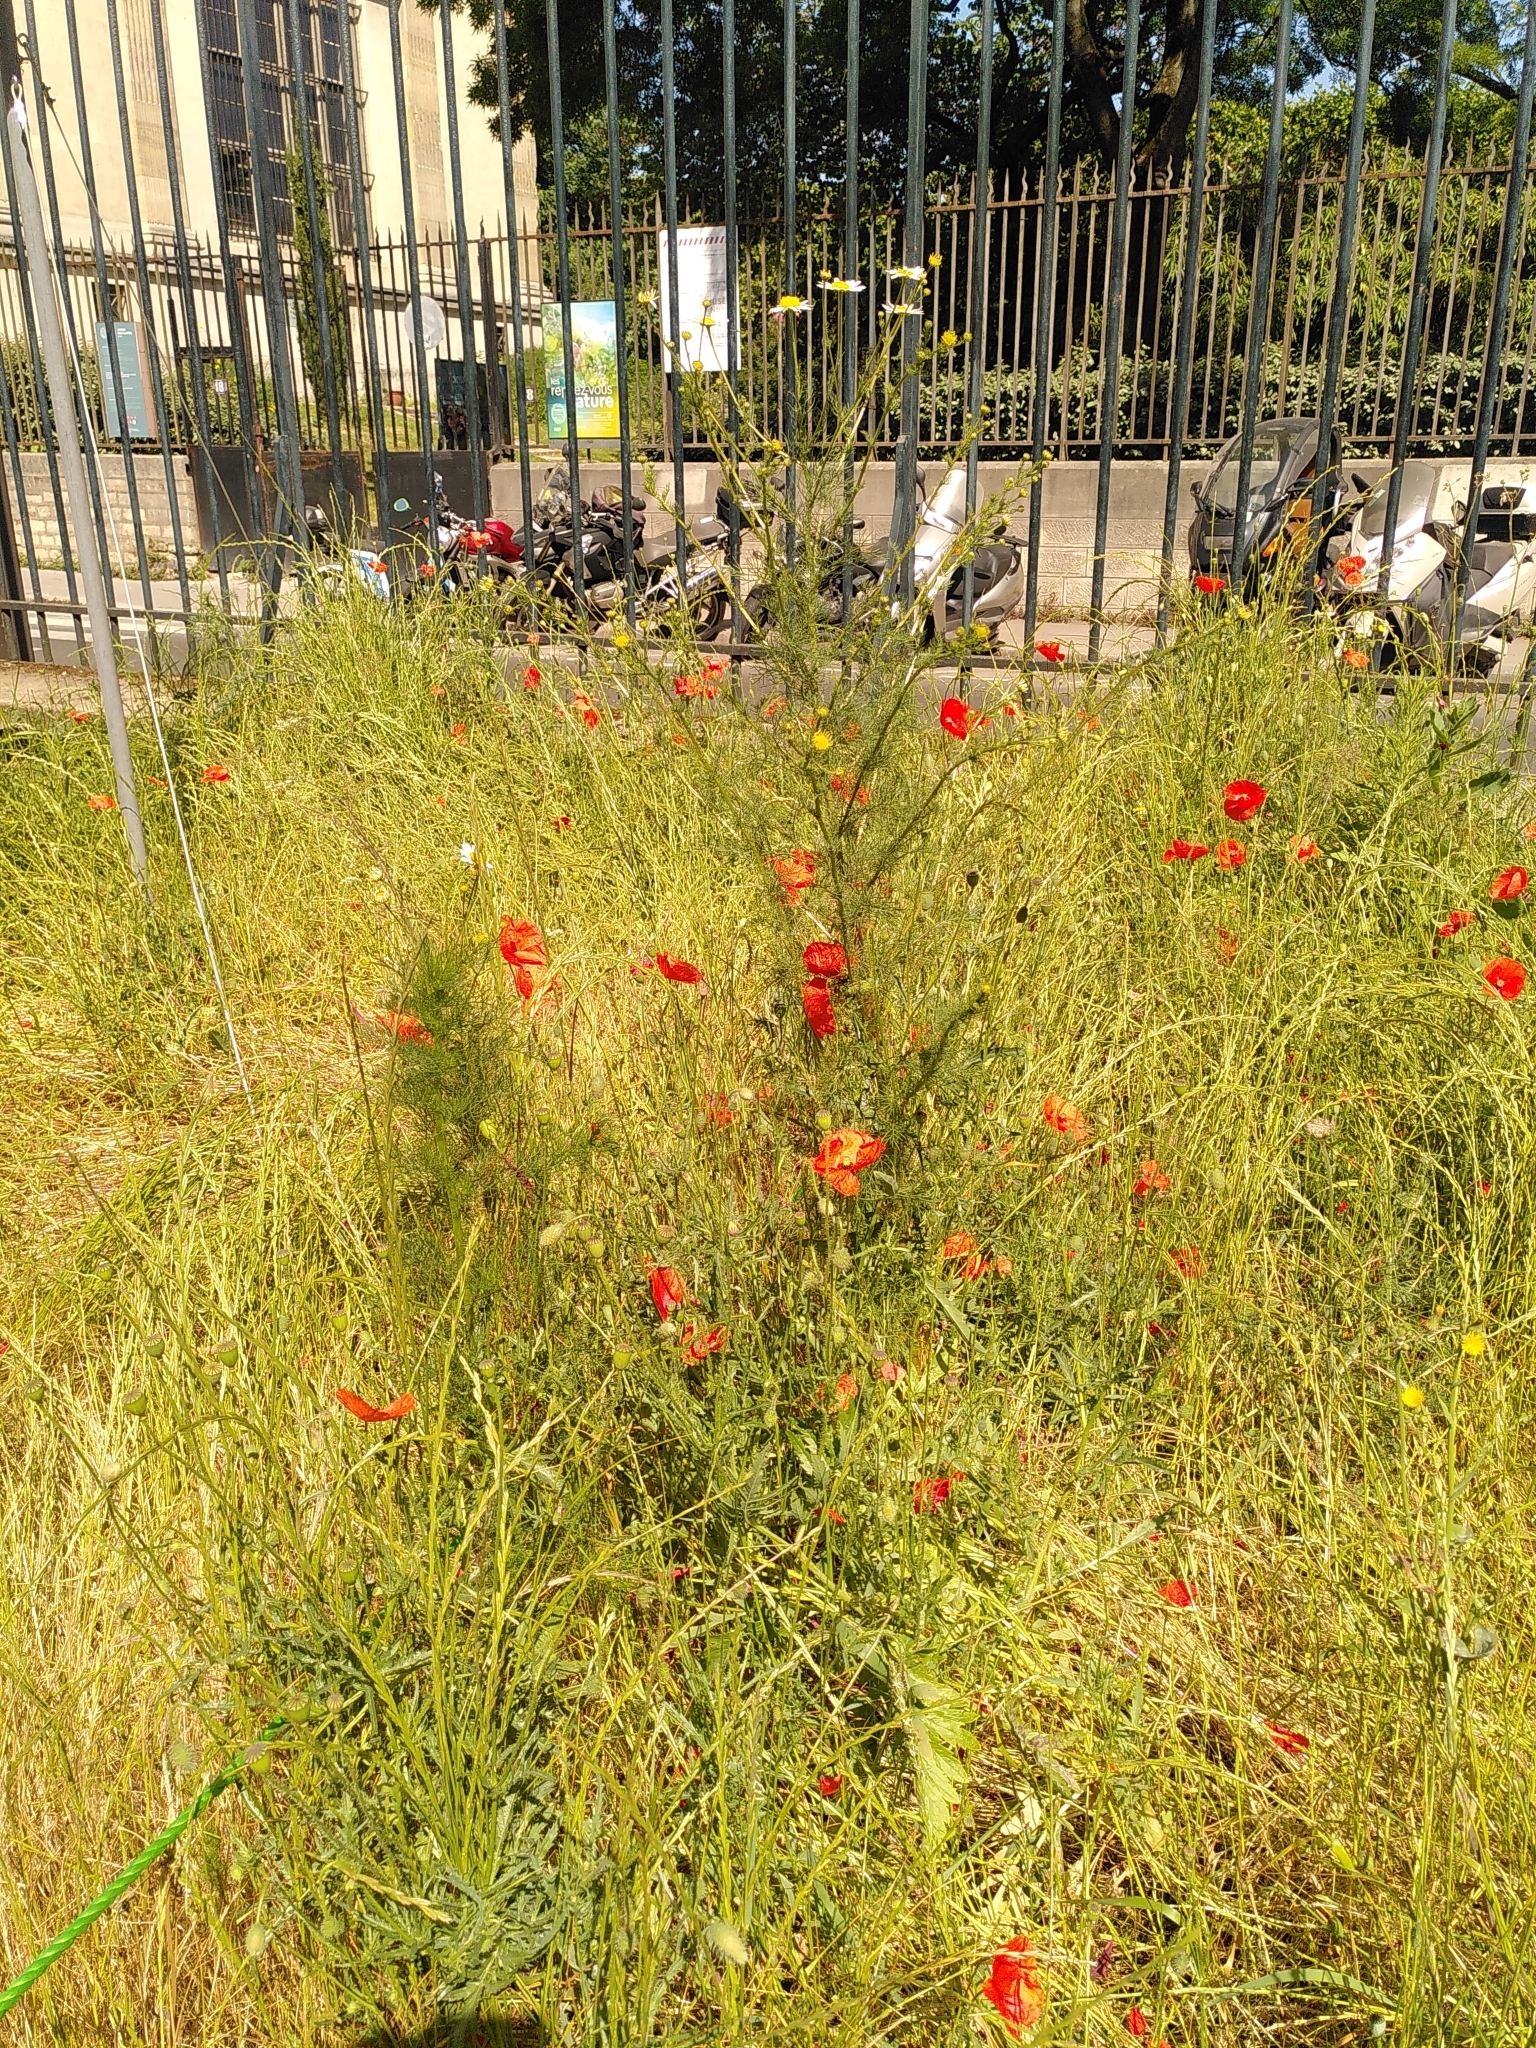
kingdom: Plantae
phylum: Tracheophyta
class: Magnoliopsida
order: Asterales
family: Asteraceae
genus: Tripleurospermum
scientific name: Tripleurospermum inodorum
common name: Scentless mayweed
